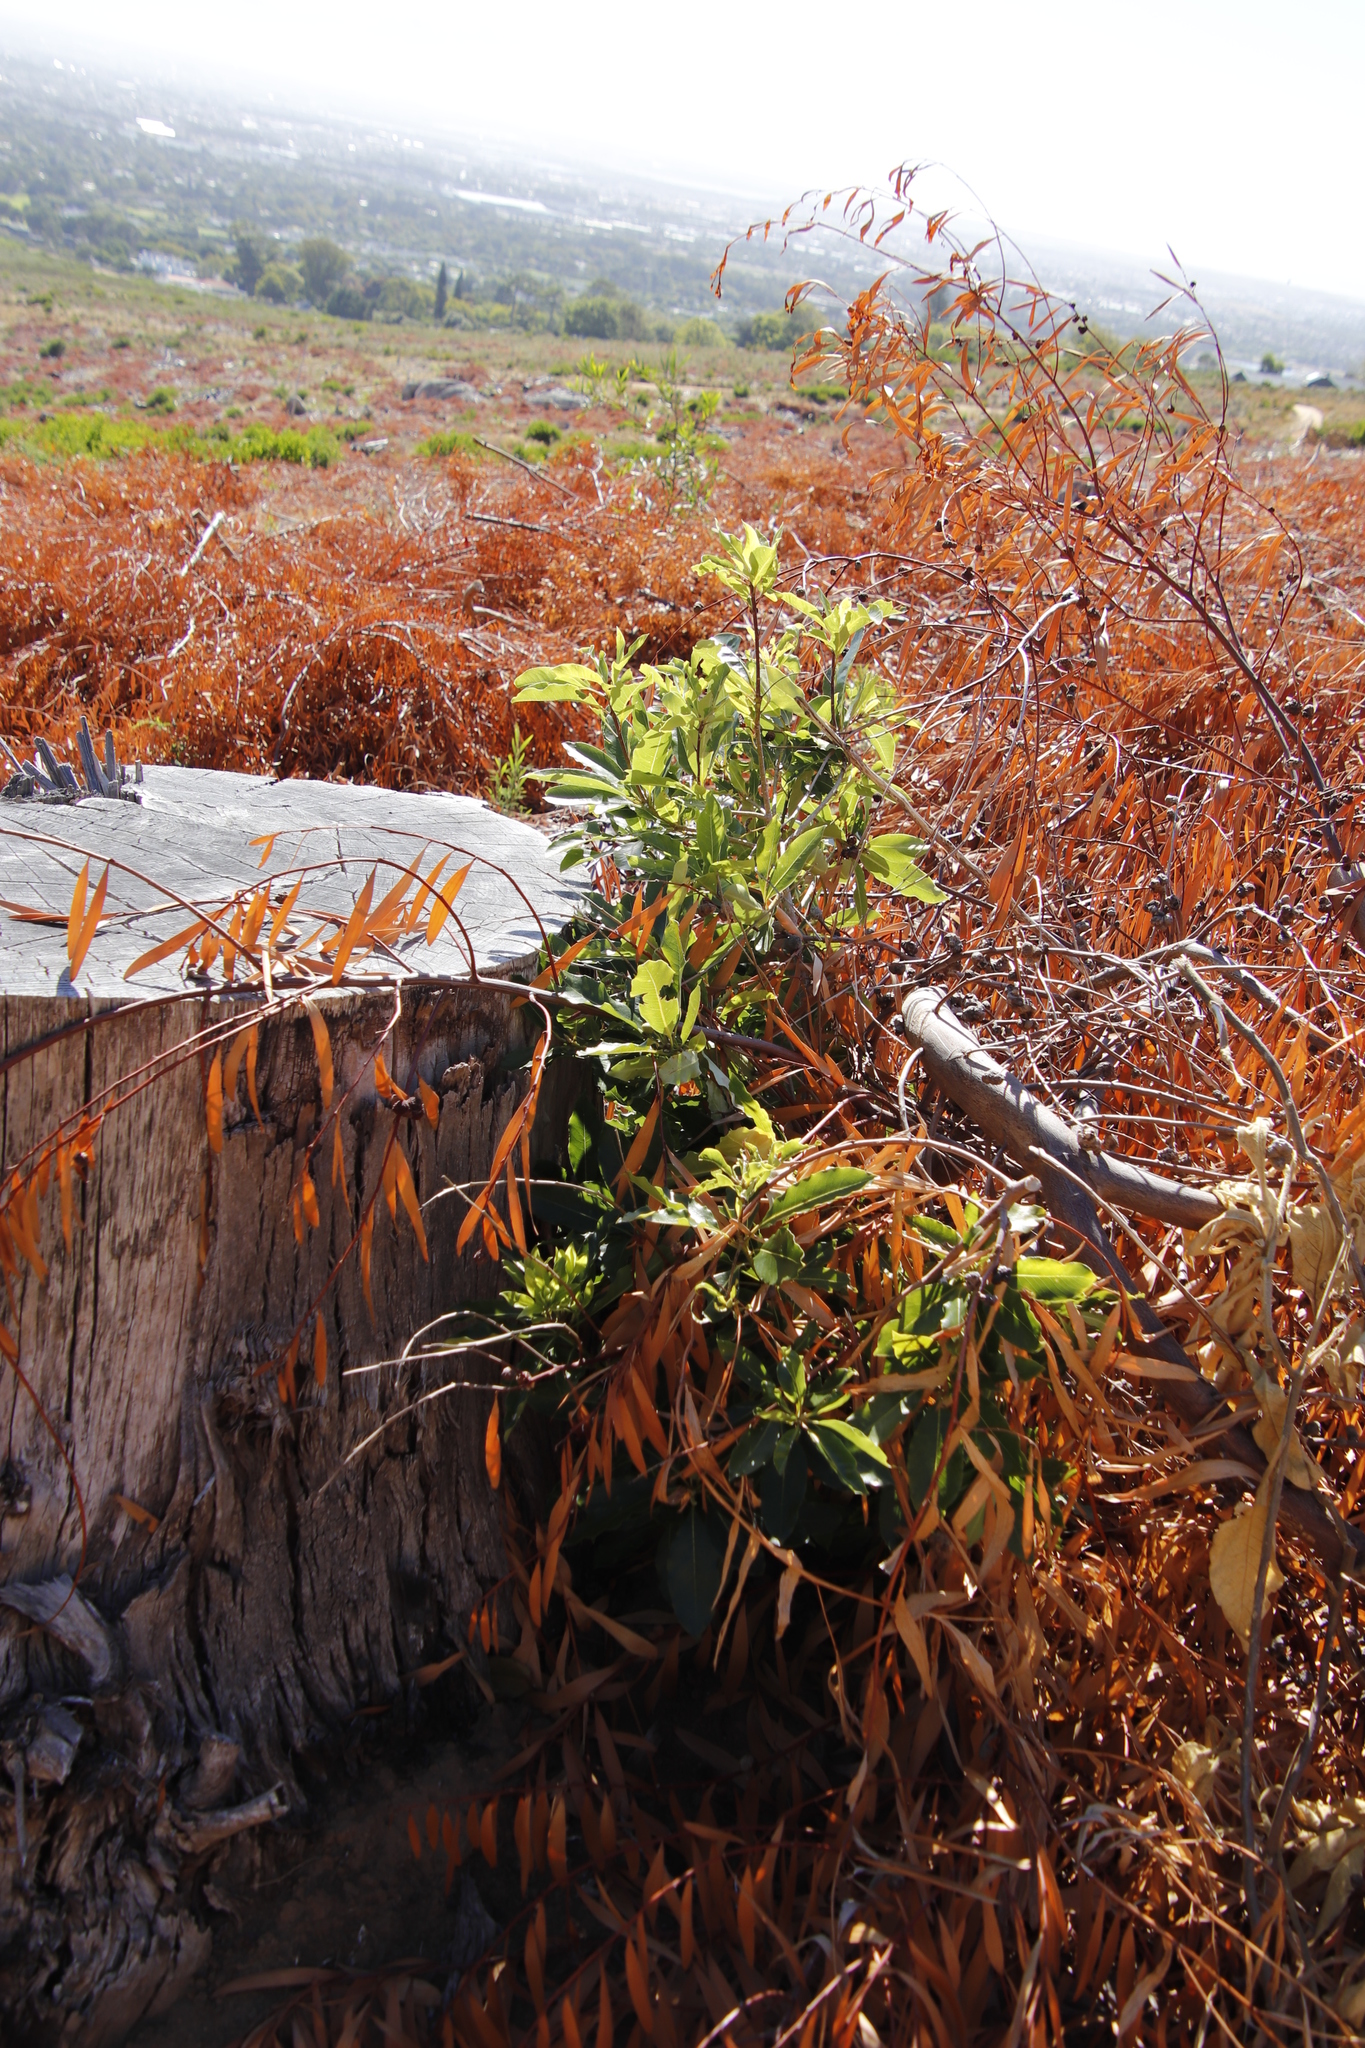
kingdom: Plantae
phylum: Tracheophyta
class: Magnoliopsida
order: Apiales
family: Pittosporaceae
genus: Pittosporum
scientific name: Pittosporum undulatum
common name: Australian cheesewood
